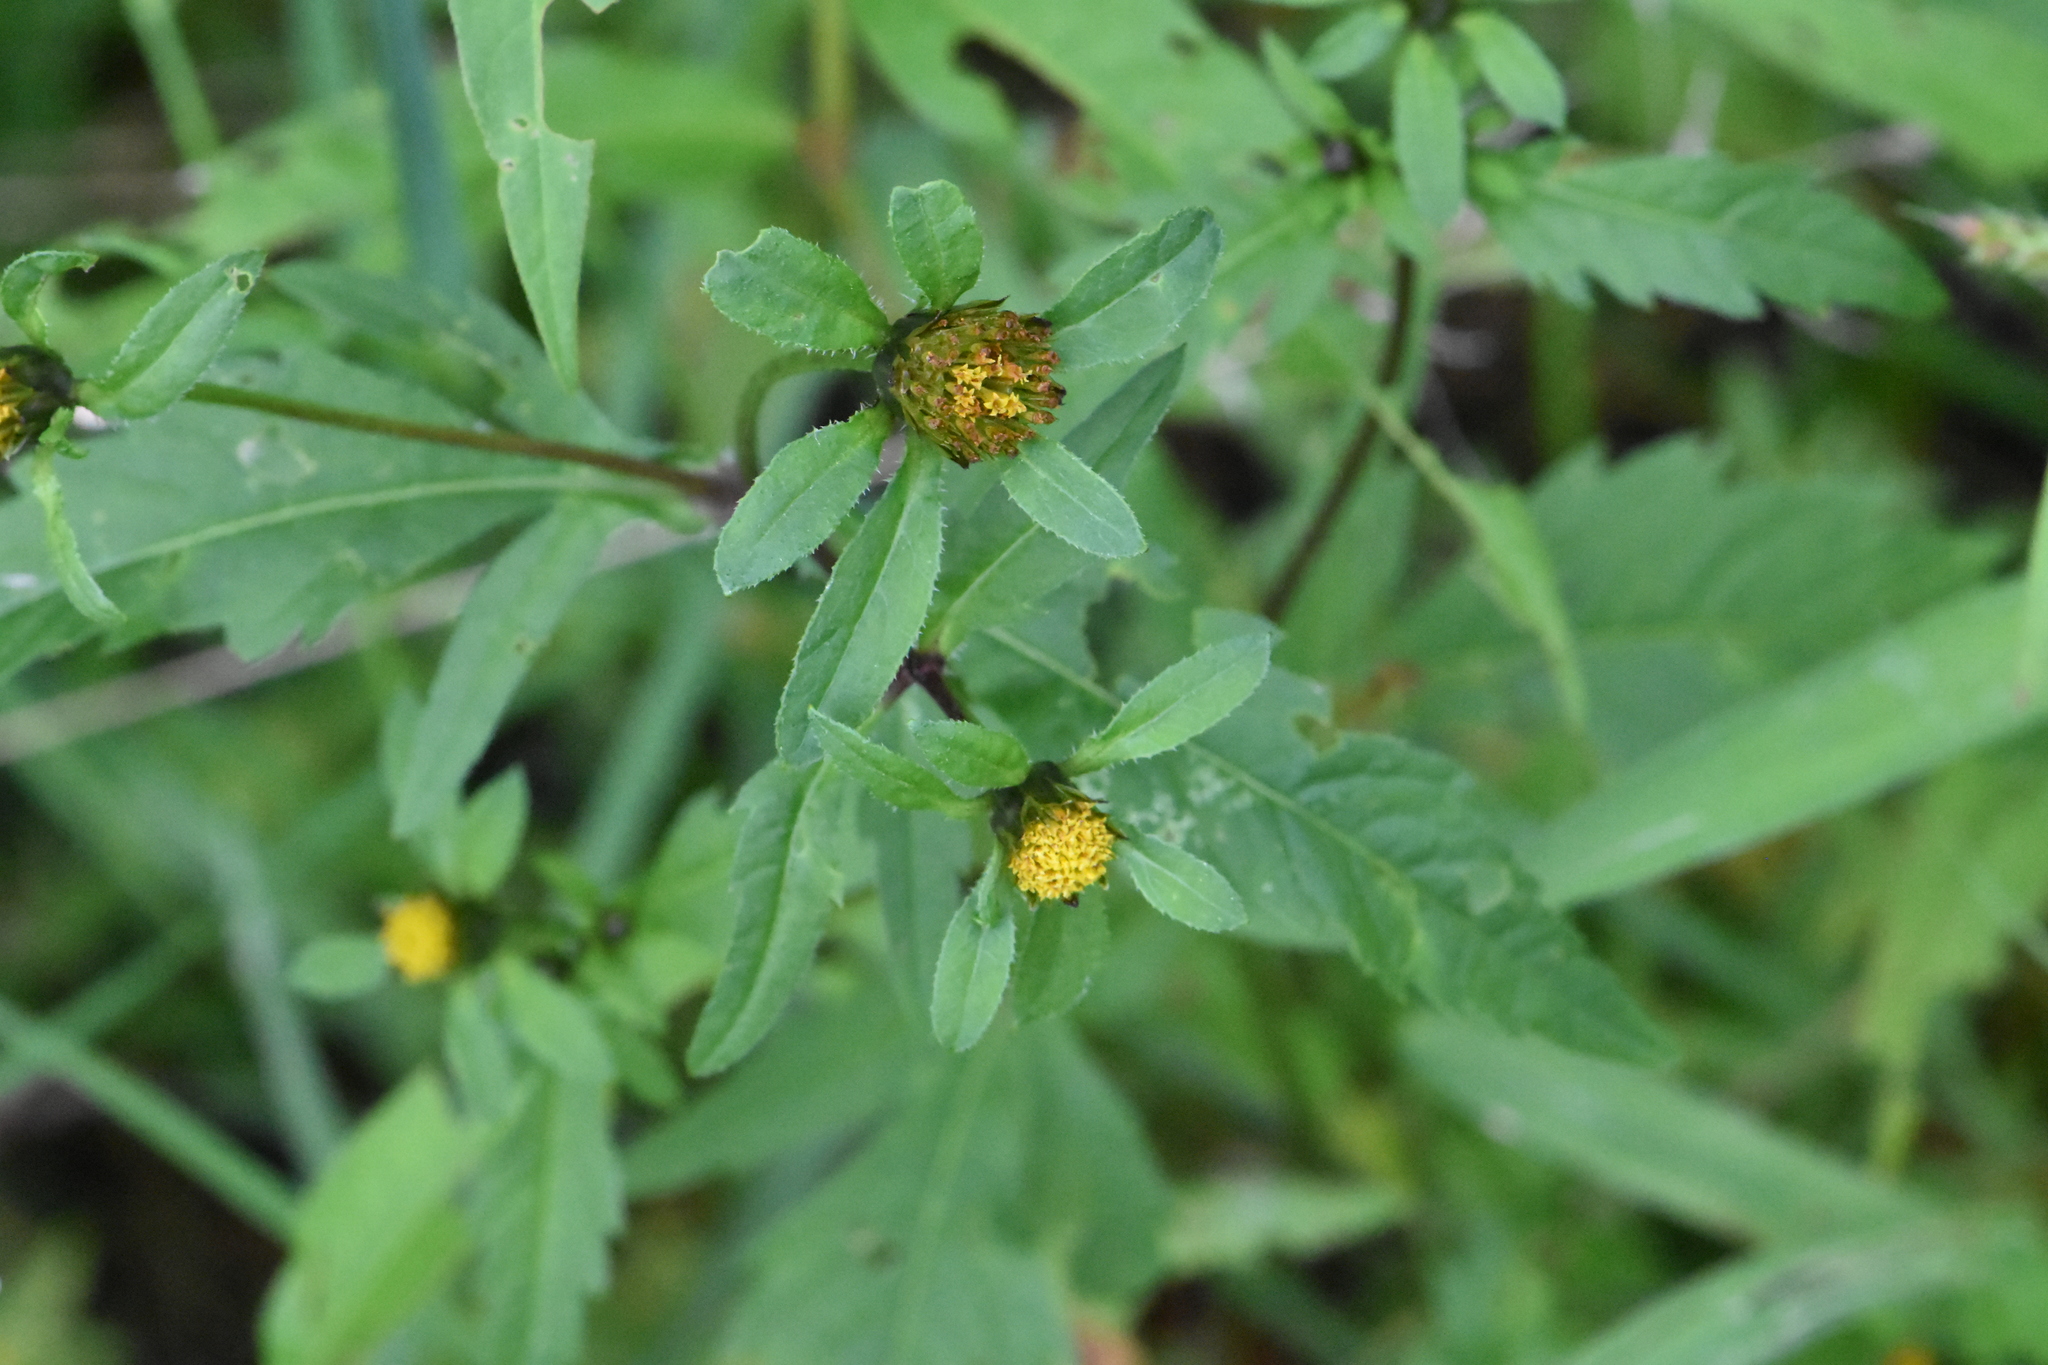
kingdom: Plantae
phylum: Tracheophyta
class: Magnoliopsida
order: Asterales
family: Asteraceae
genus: Bidens
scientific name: Bidens tripartita
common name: Trifid bur-marigold
